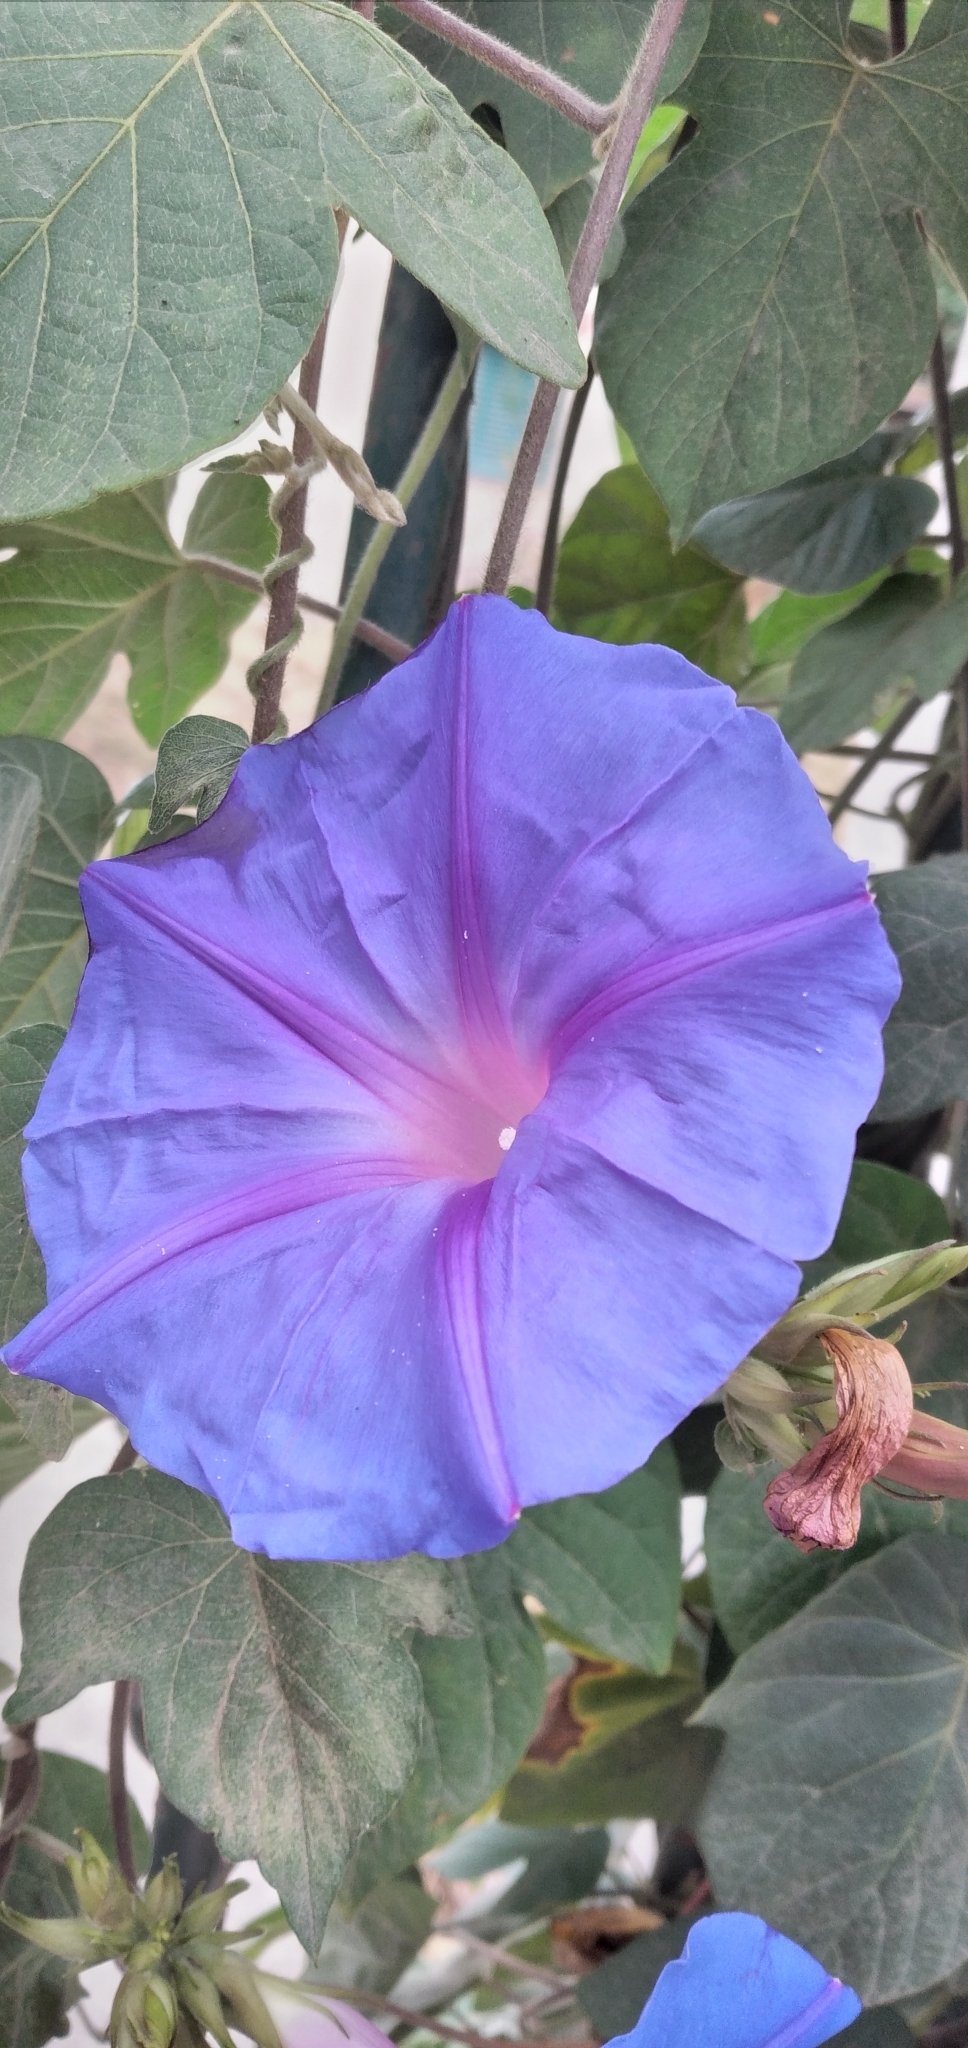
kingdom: Plantae
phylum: Tracheophyta
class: Magnoliopsida
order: Solanales
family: Convolvulaceae
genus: Ipomoea
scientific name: Ipomoea indica
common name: Blue dawnflower
